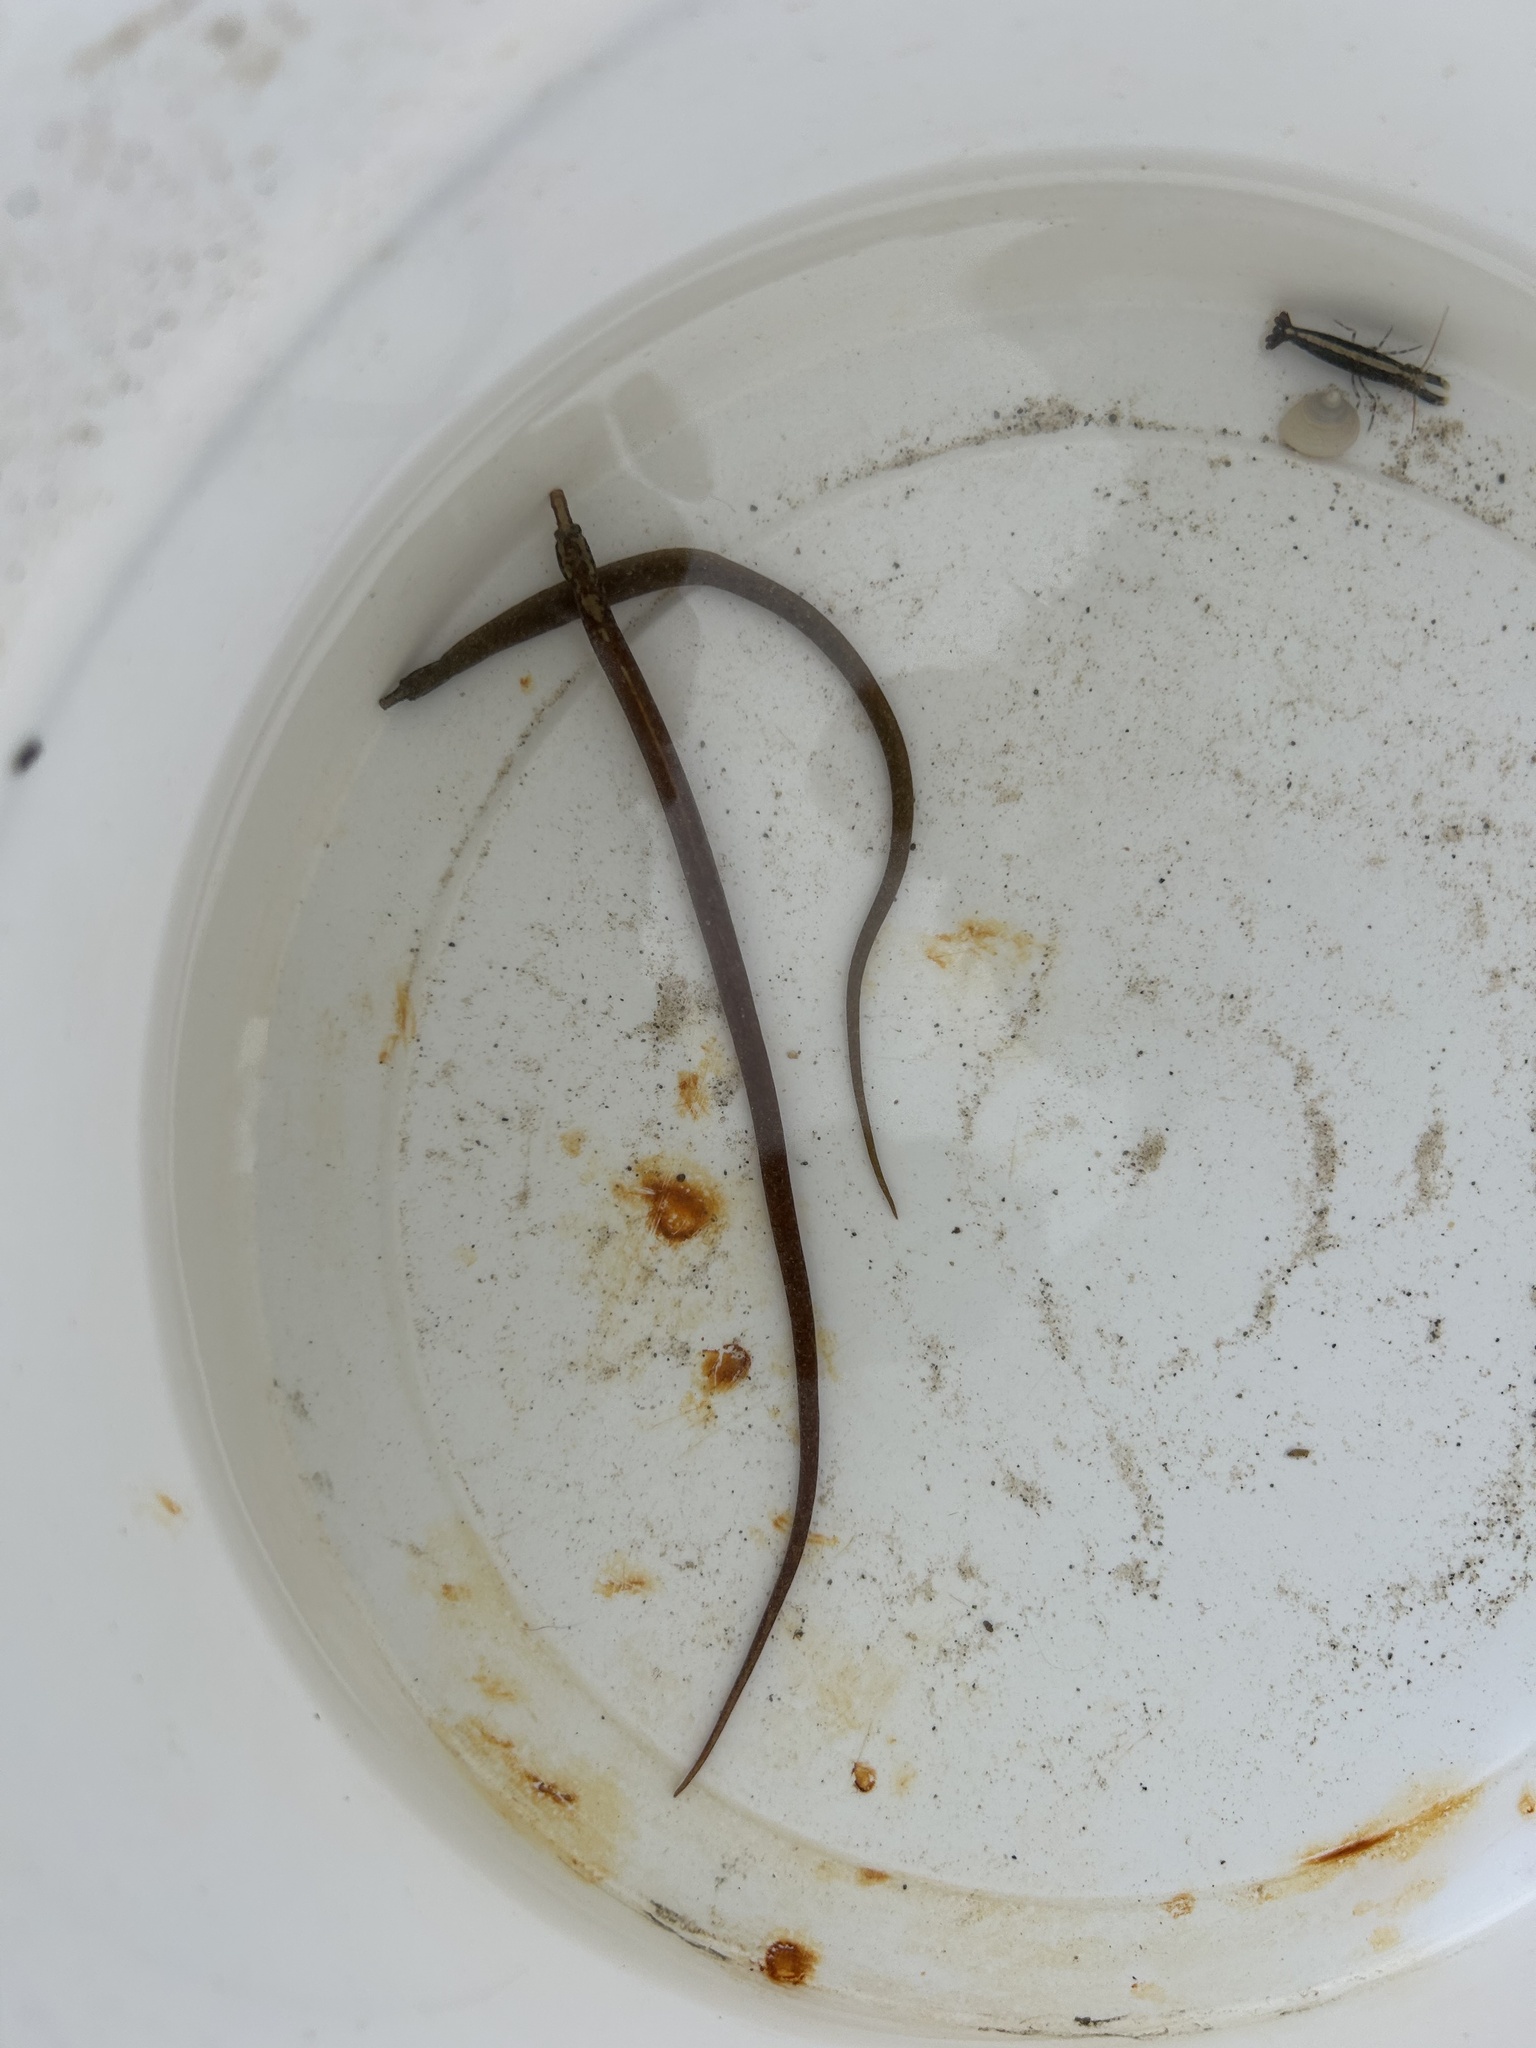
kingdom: Animalia
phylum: Chordata
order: Syngnathiformes
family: Syngnathidae
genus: Nerophis
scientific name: Nerophis lumbriciformis
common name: Worm pipefish
